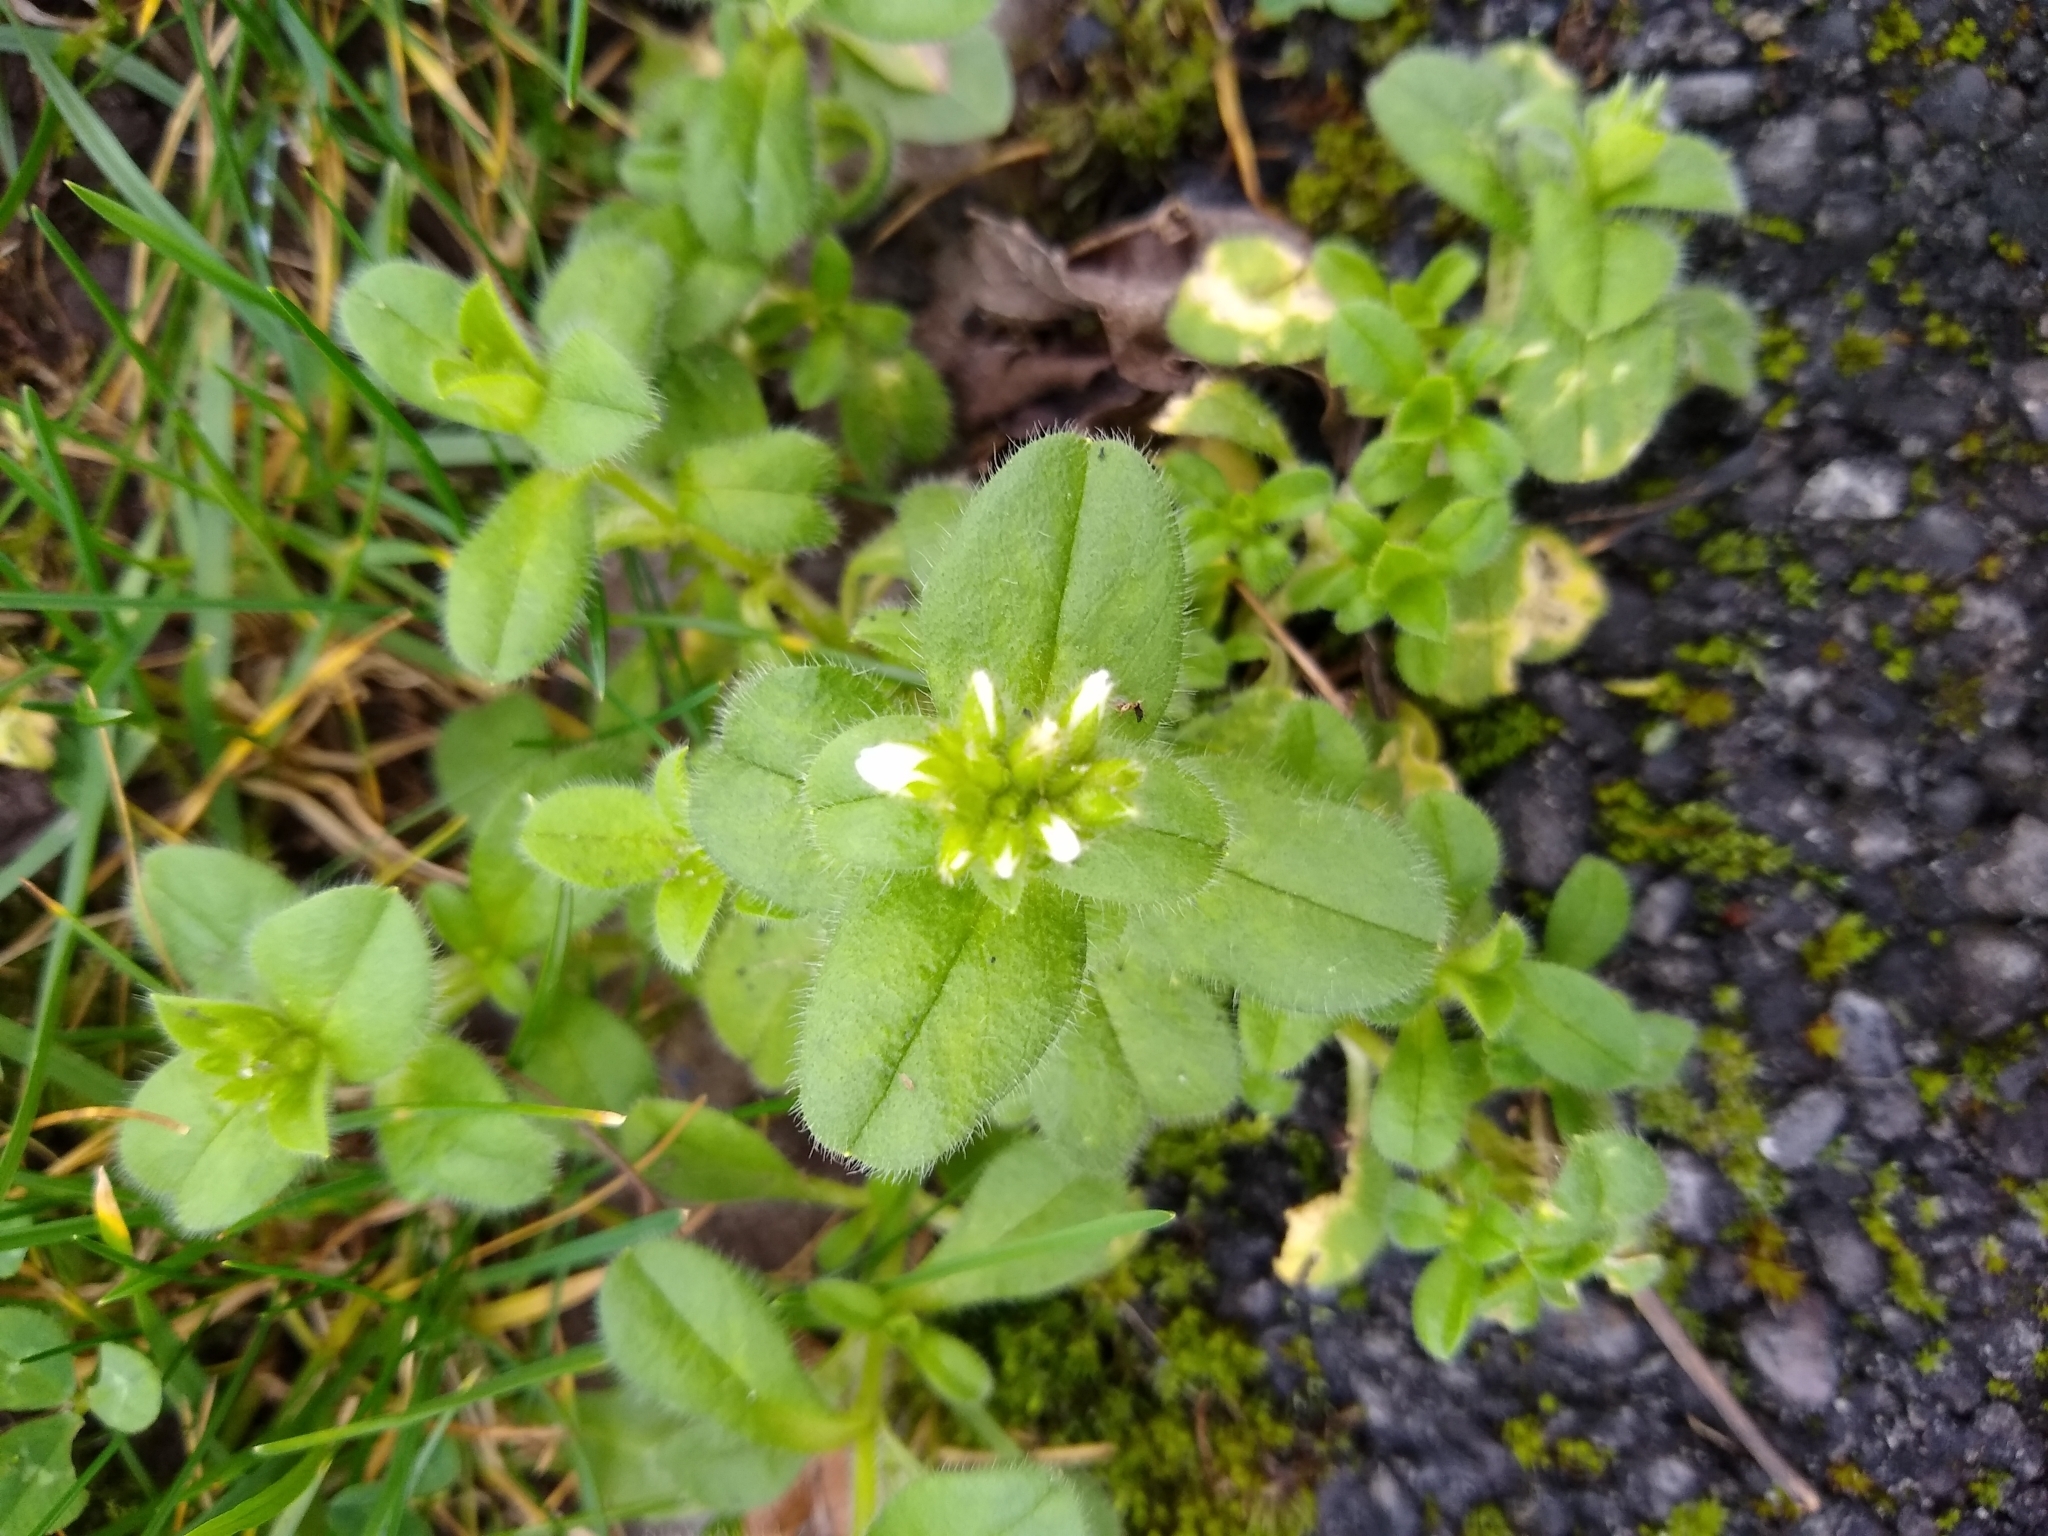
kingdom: Plantae
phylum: Tracheophyta
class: Magnoliopsida
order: Caryophyllales
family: Caryophyllaceae
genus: Cerastium
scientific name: Cerastium glomeratum
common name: Sticky chickweed
